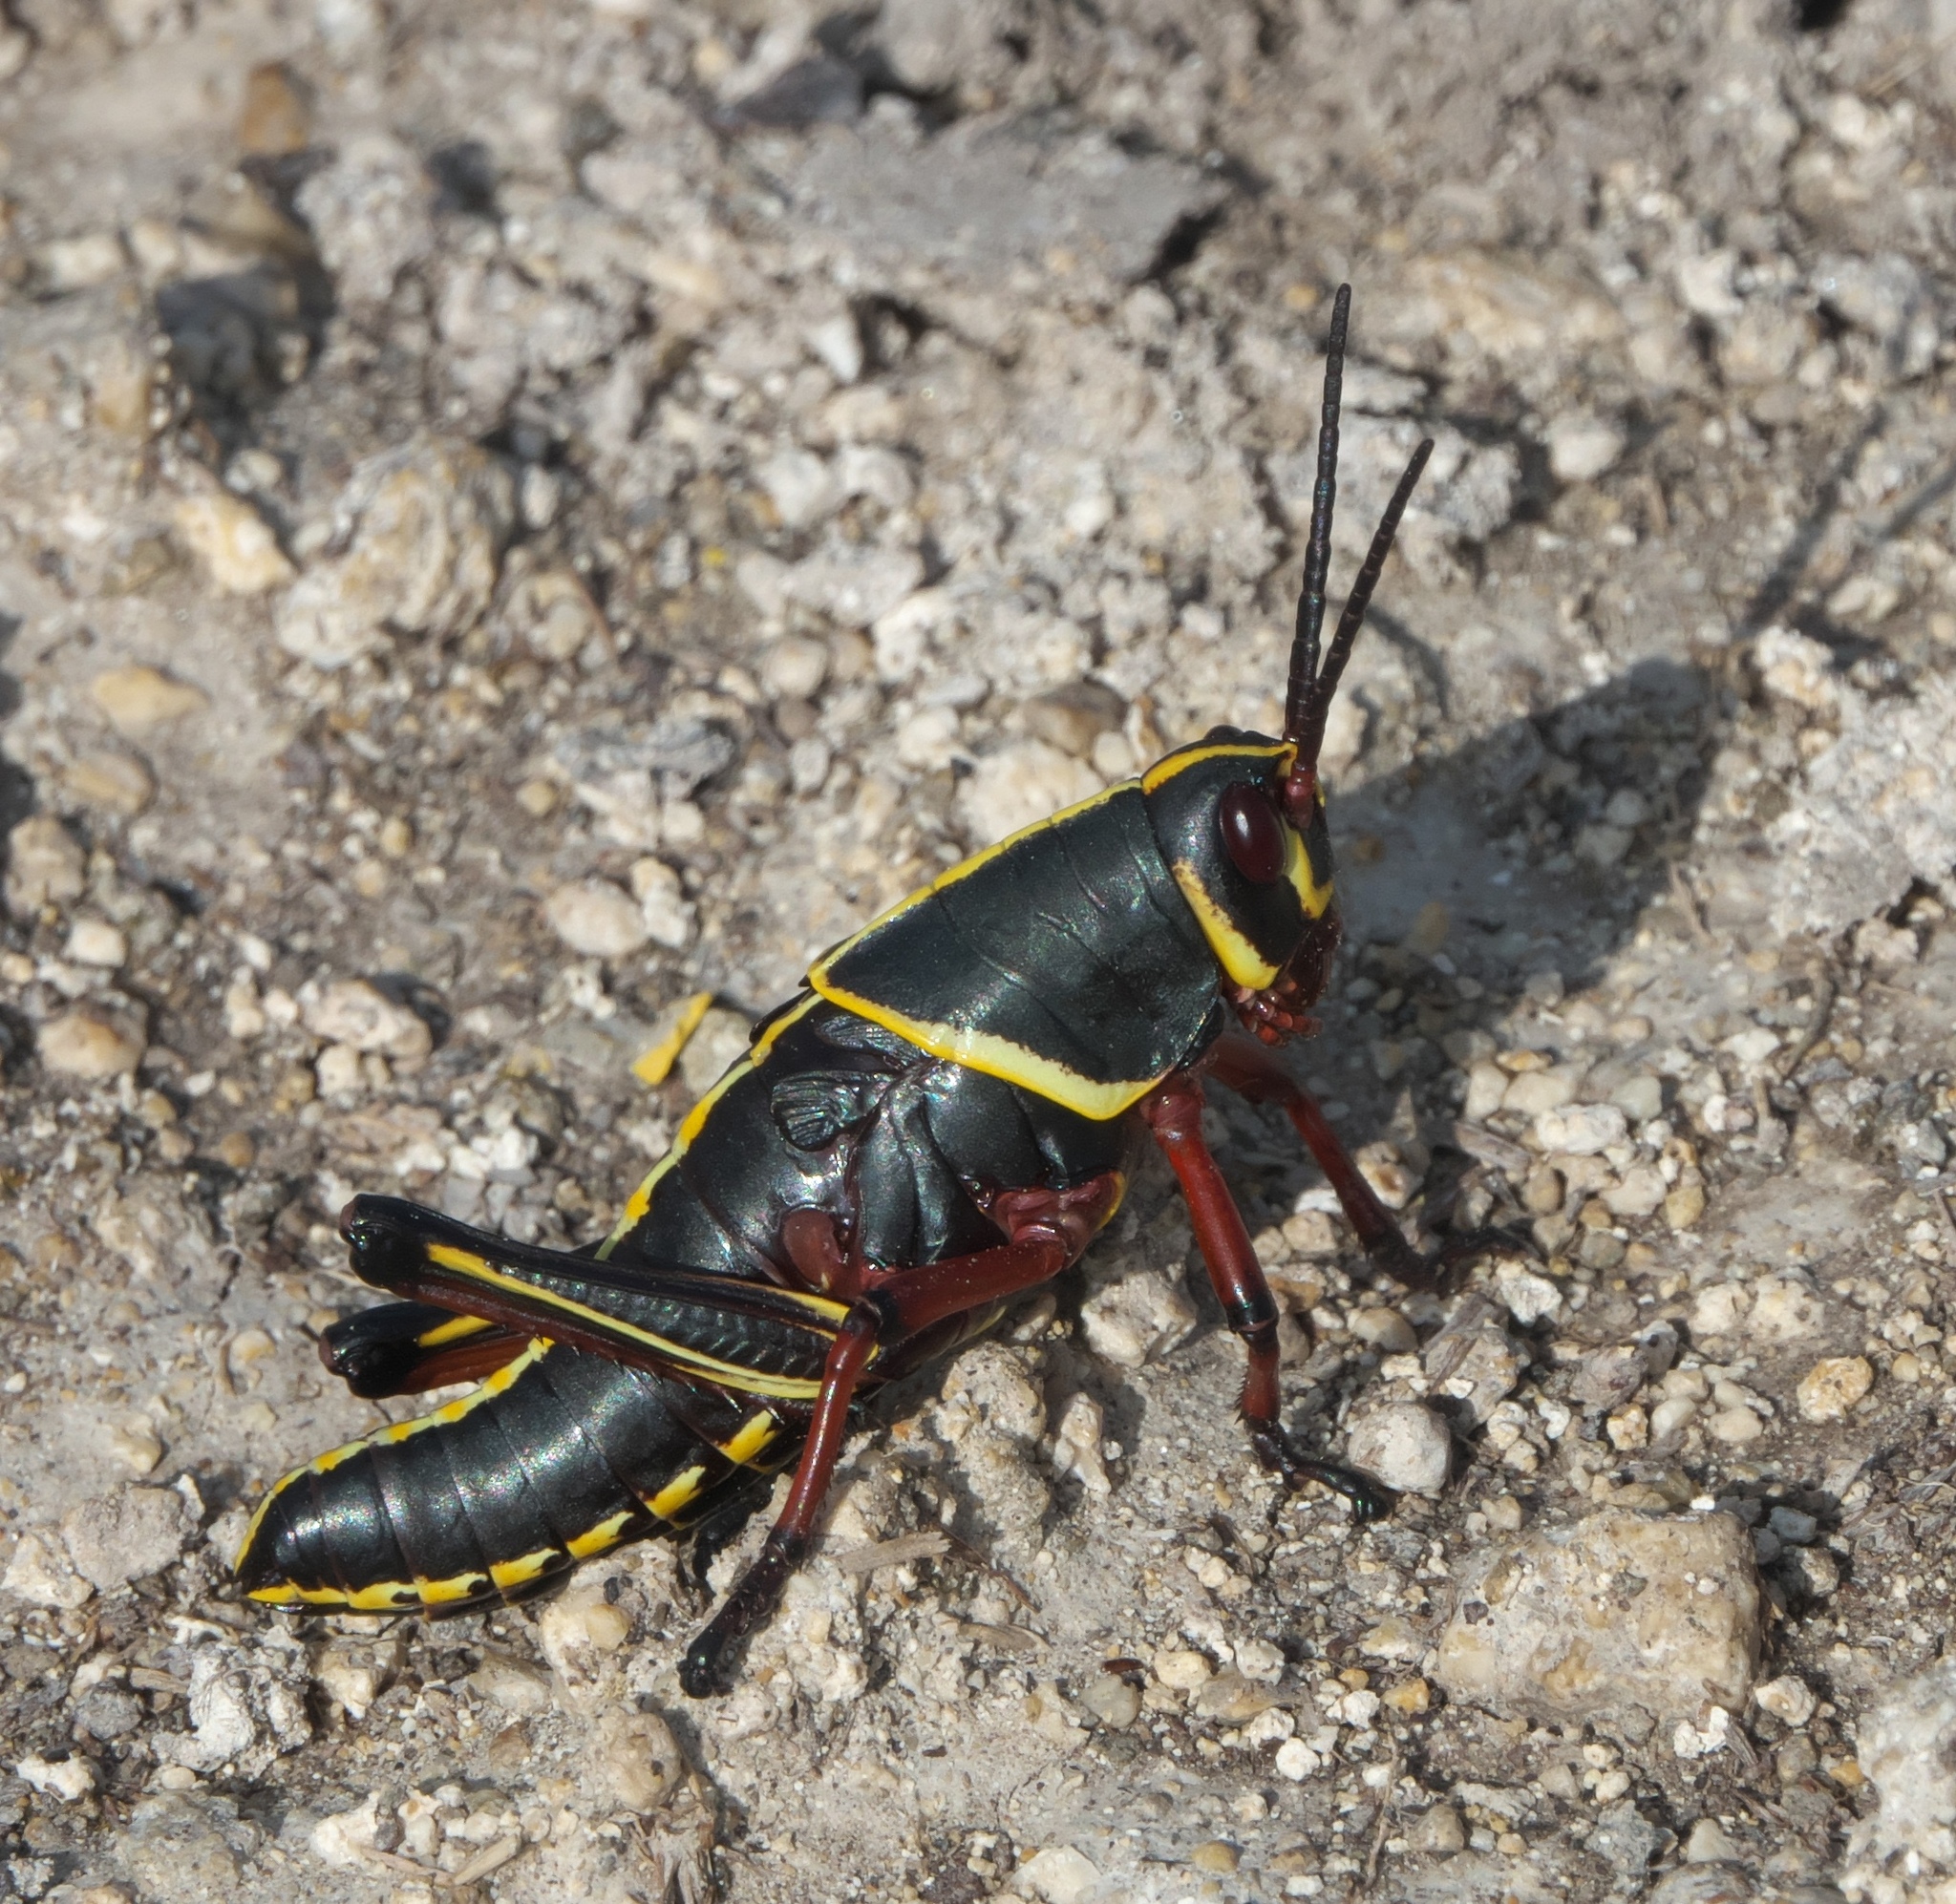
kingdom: Animalia
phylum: Arthropoda
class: Insecta
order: Orthoptera
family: Romaleidae
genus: Romalea
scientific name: Romalea microptera
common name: Eastern lubber grasshopper
